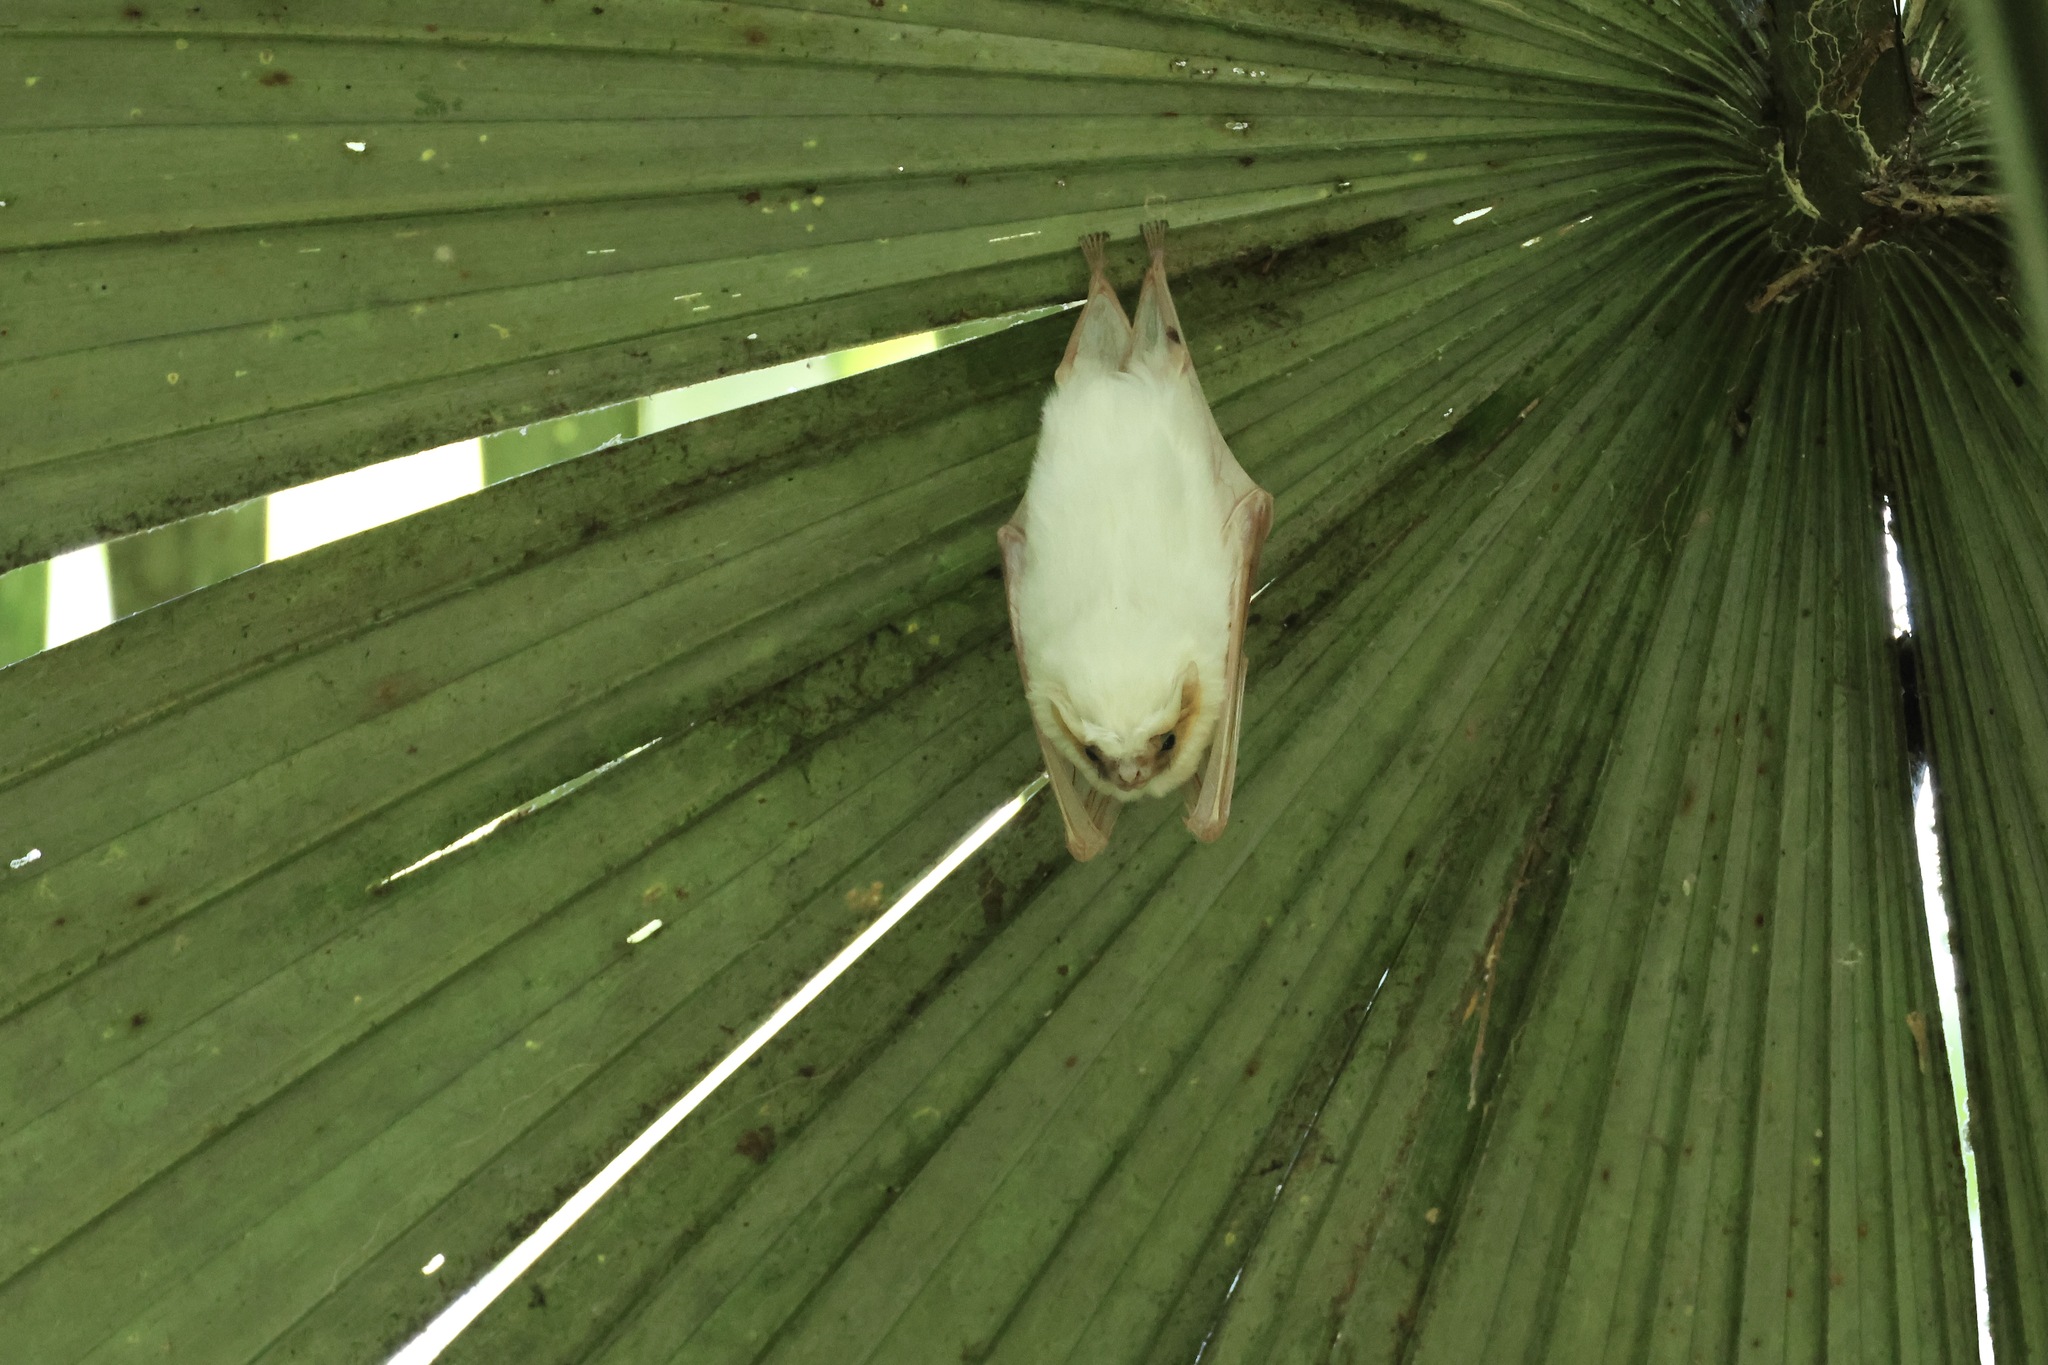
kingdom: Animalia
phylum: Chordata
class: Mammalia
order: Chiroptera
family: Emballonuridae
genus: Diclidurus
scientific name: Diclidurus albus
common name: Northern ghost bat
